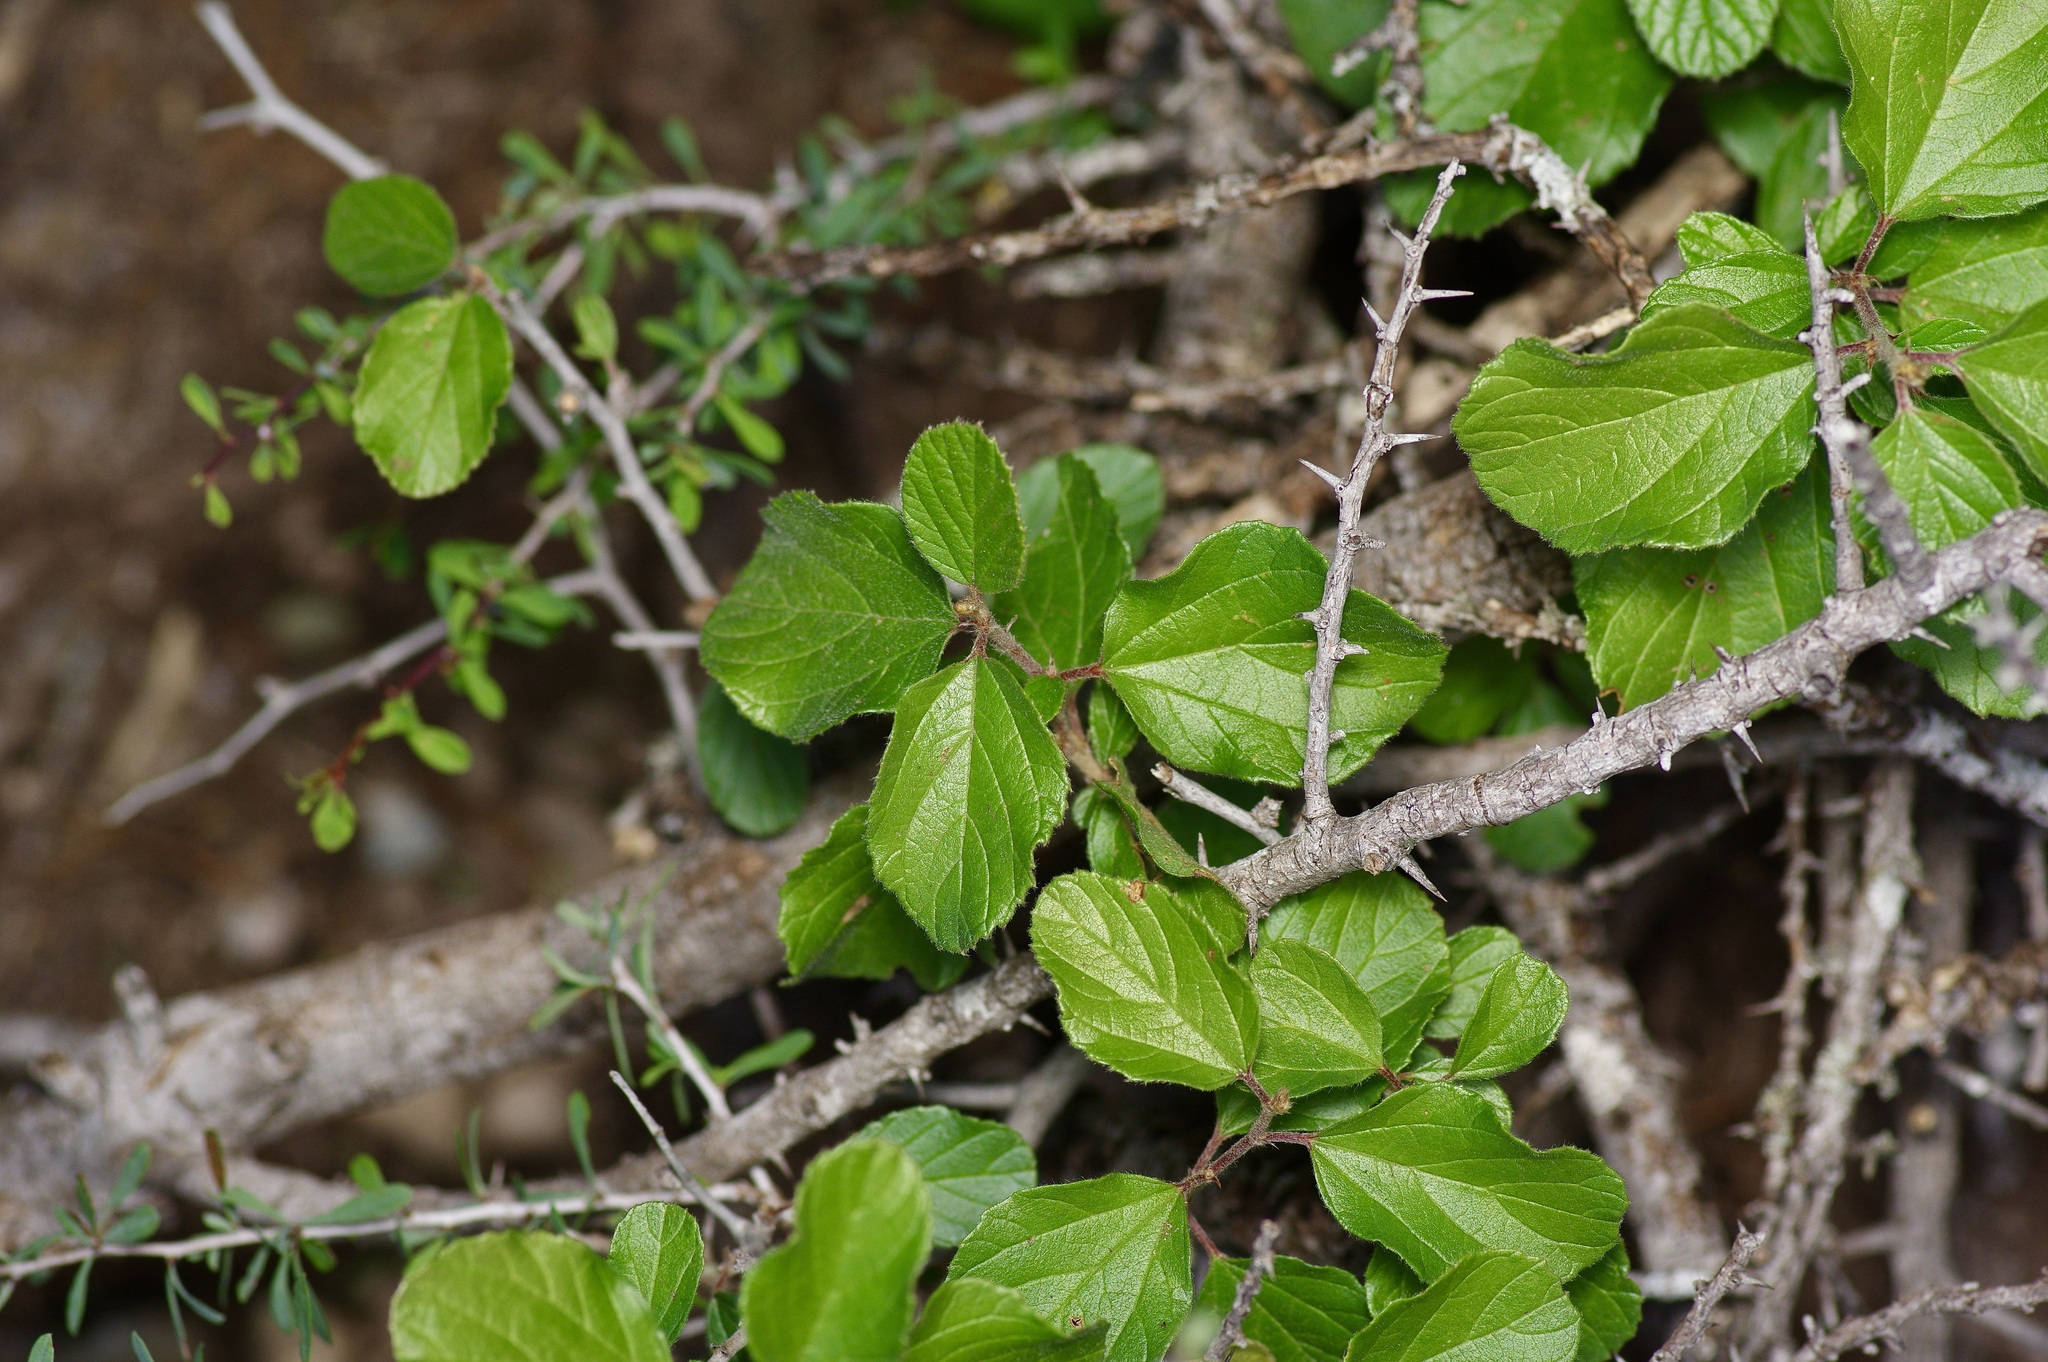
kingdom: Plantae
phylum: Tracheophyta
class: Magnoliopsida
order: Rosales
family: Rhamnaceae
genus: Colubrina
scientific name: Colubrina texensis
